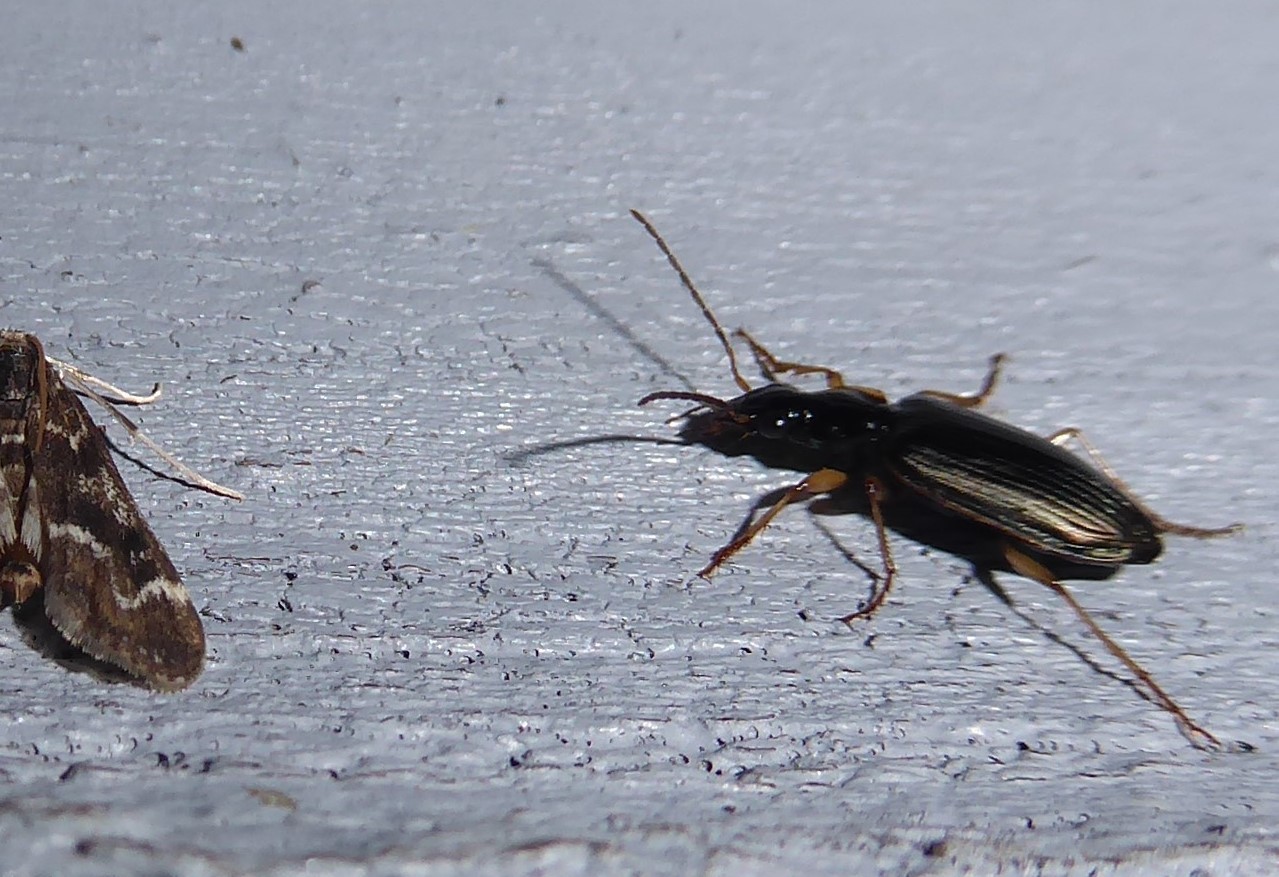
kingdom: Animalia
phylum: Arthropoda
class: Insecta
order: Coleoptera
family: Carabidae
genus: Notagonum
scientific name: Notagonum submetallicum
